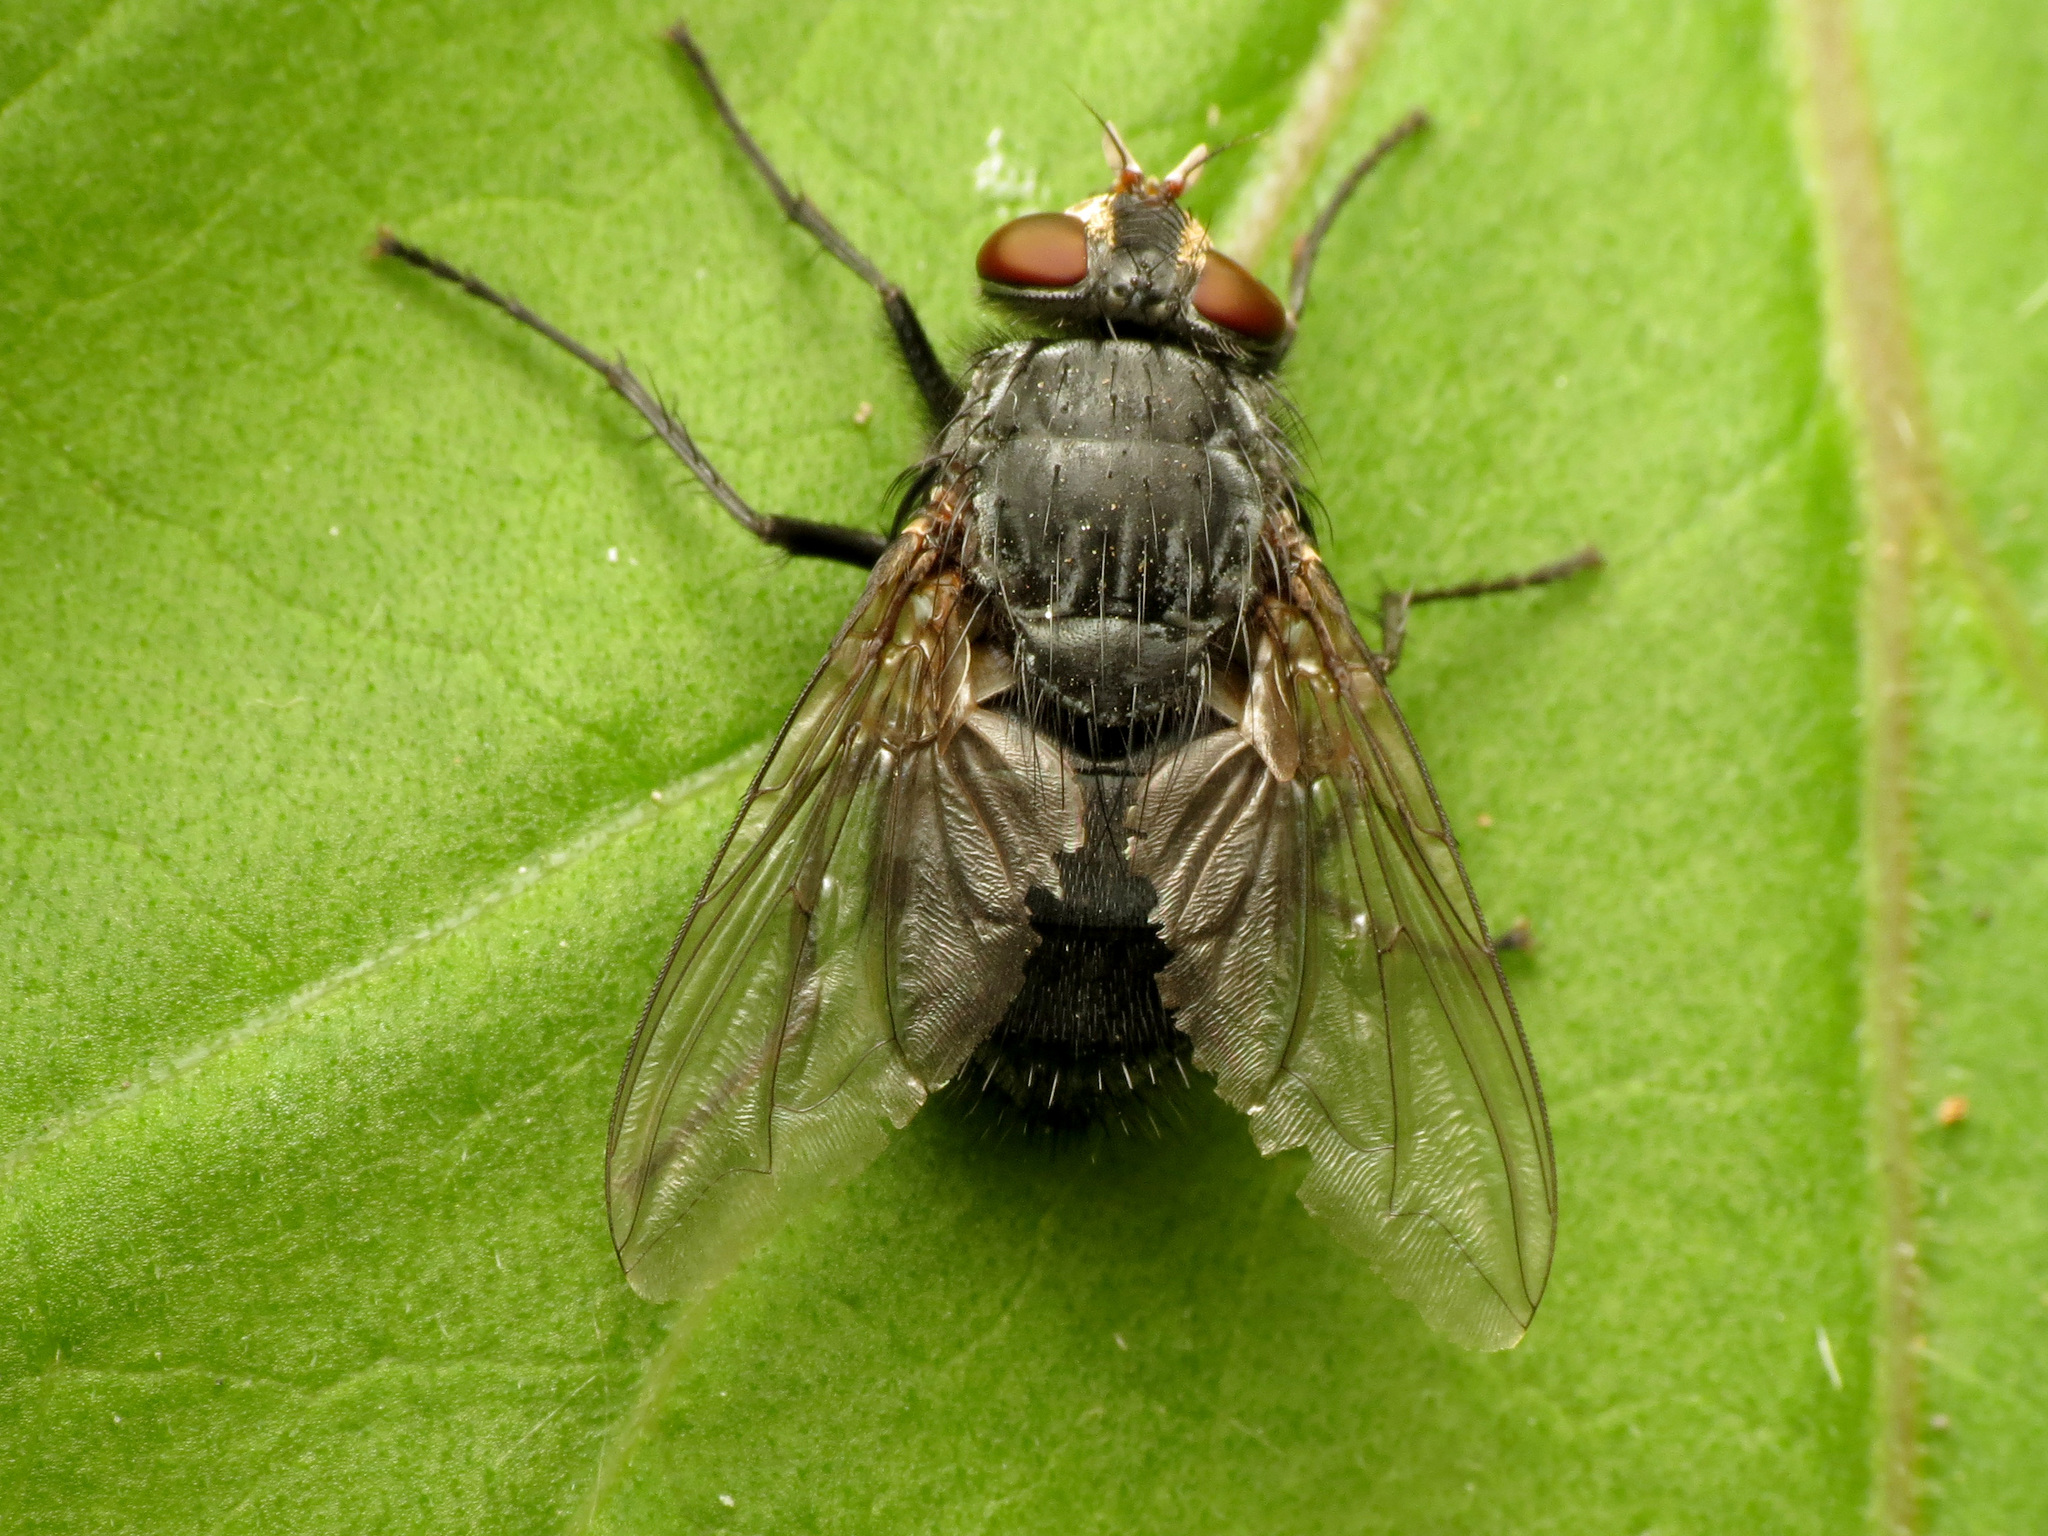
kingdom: Animalia
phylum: Arthropoda
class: Insecta
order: Diptera
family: Calliphoridae
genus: Calliphora
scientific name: Calliphora vicina
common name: Common blow flie
